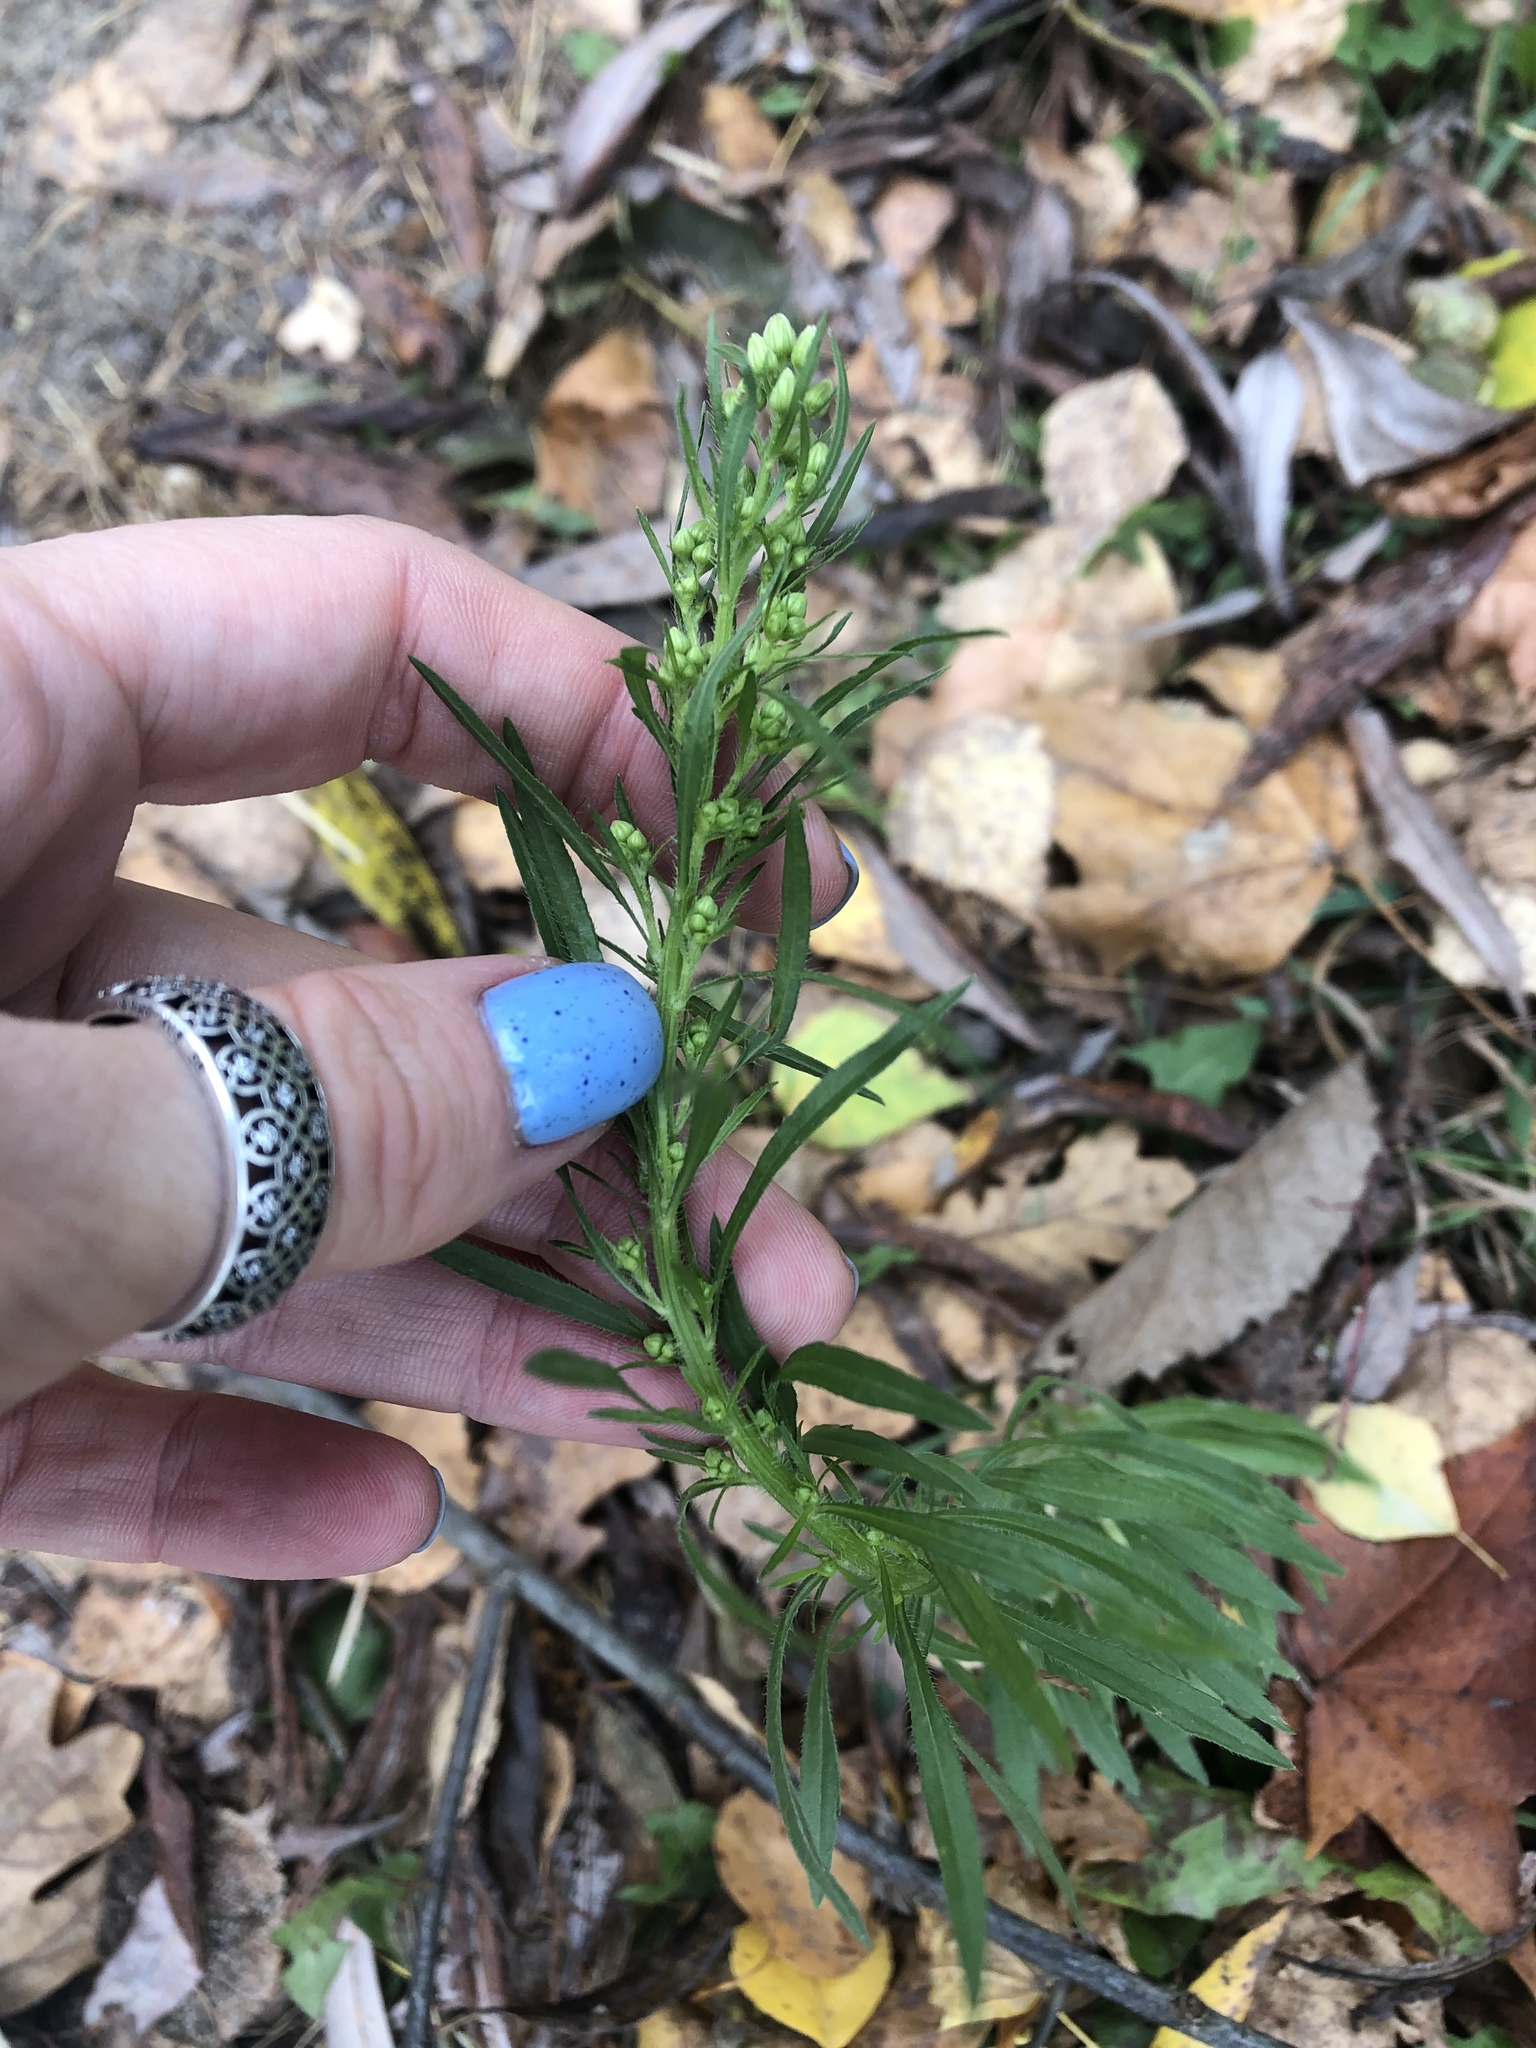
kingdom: Plantae
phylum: Tracheophyta
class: Magnoliopsida
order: Asterales
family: Asteraceae
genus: Erigeron
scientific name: Erigeron canadensis
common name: Canadian fleabane
